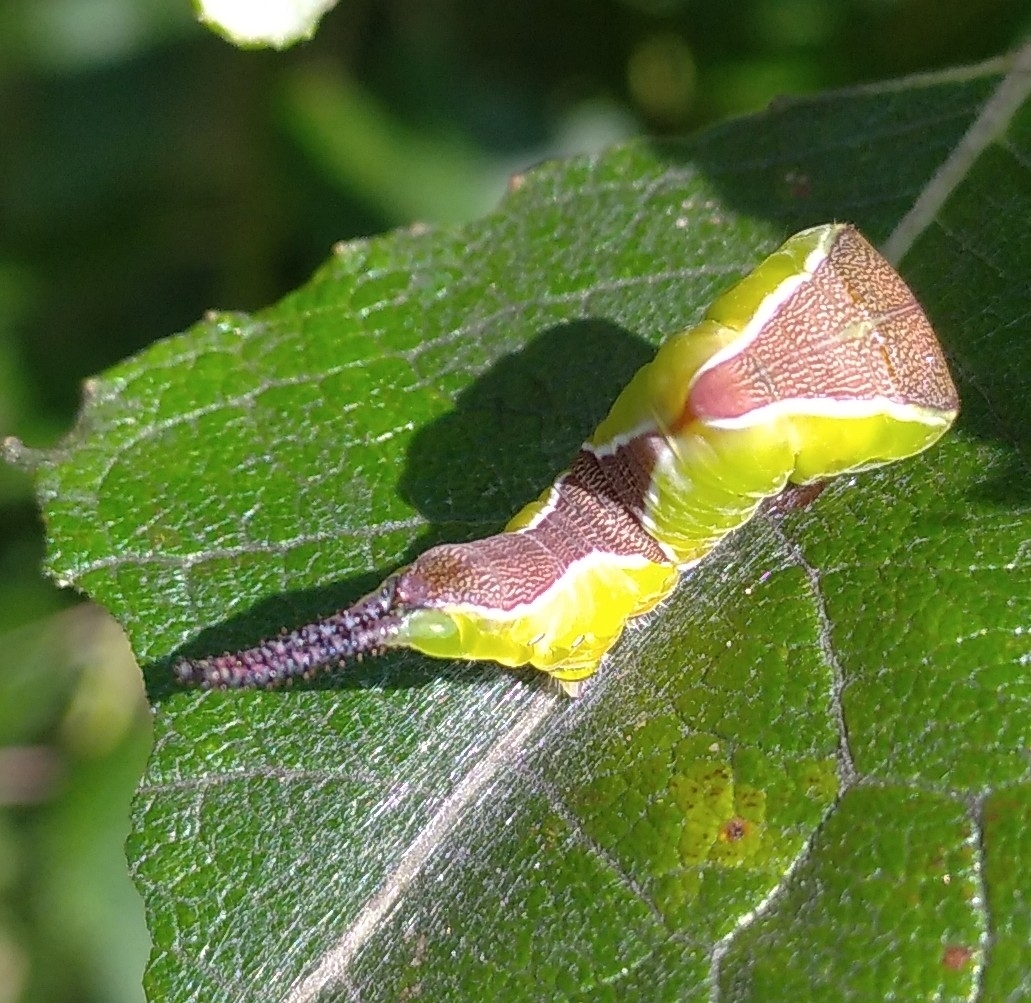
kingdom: Animalia
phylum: Arthropoda
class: Insecta
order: Lepidoptera
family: Notodontidae
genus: Cerura
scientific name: Cerura vinula
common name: Puss moth
